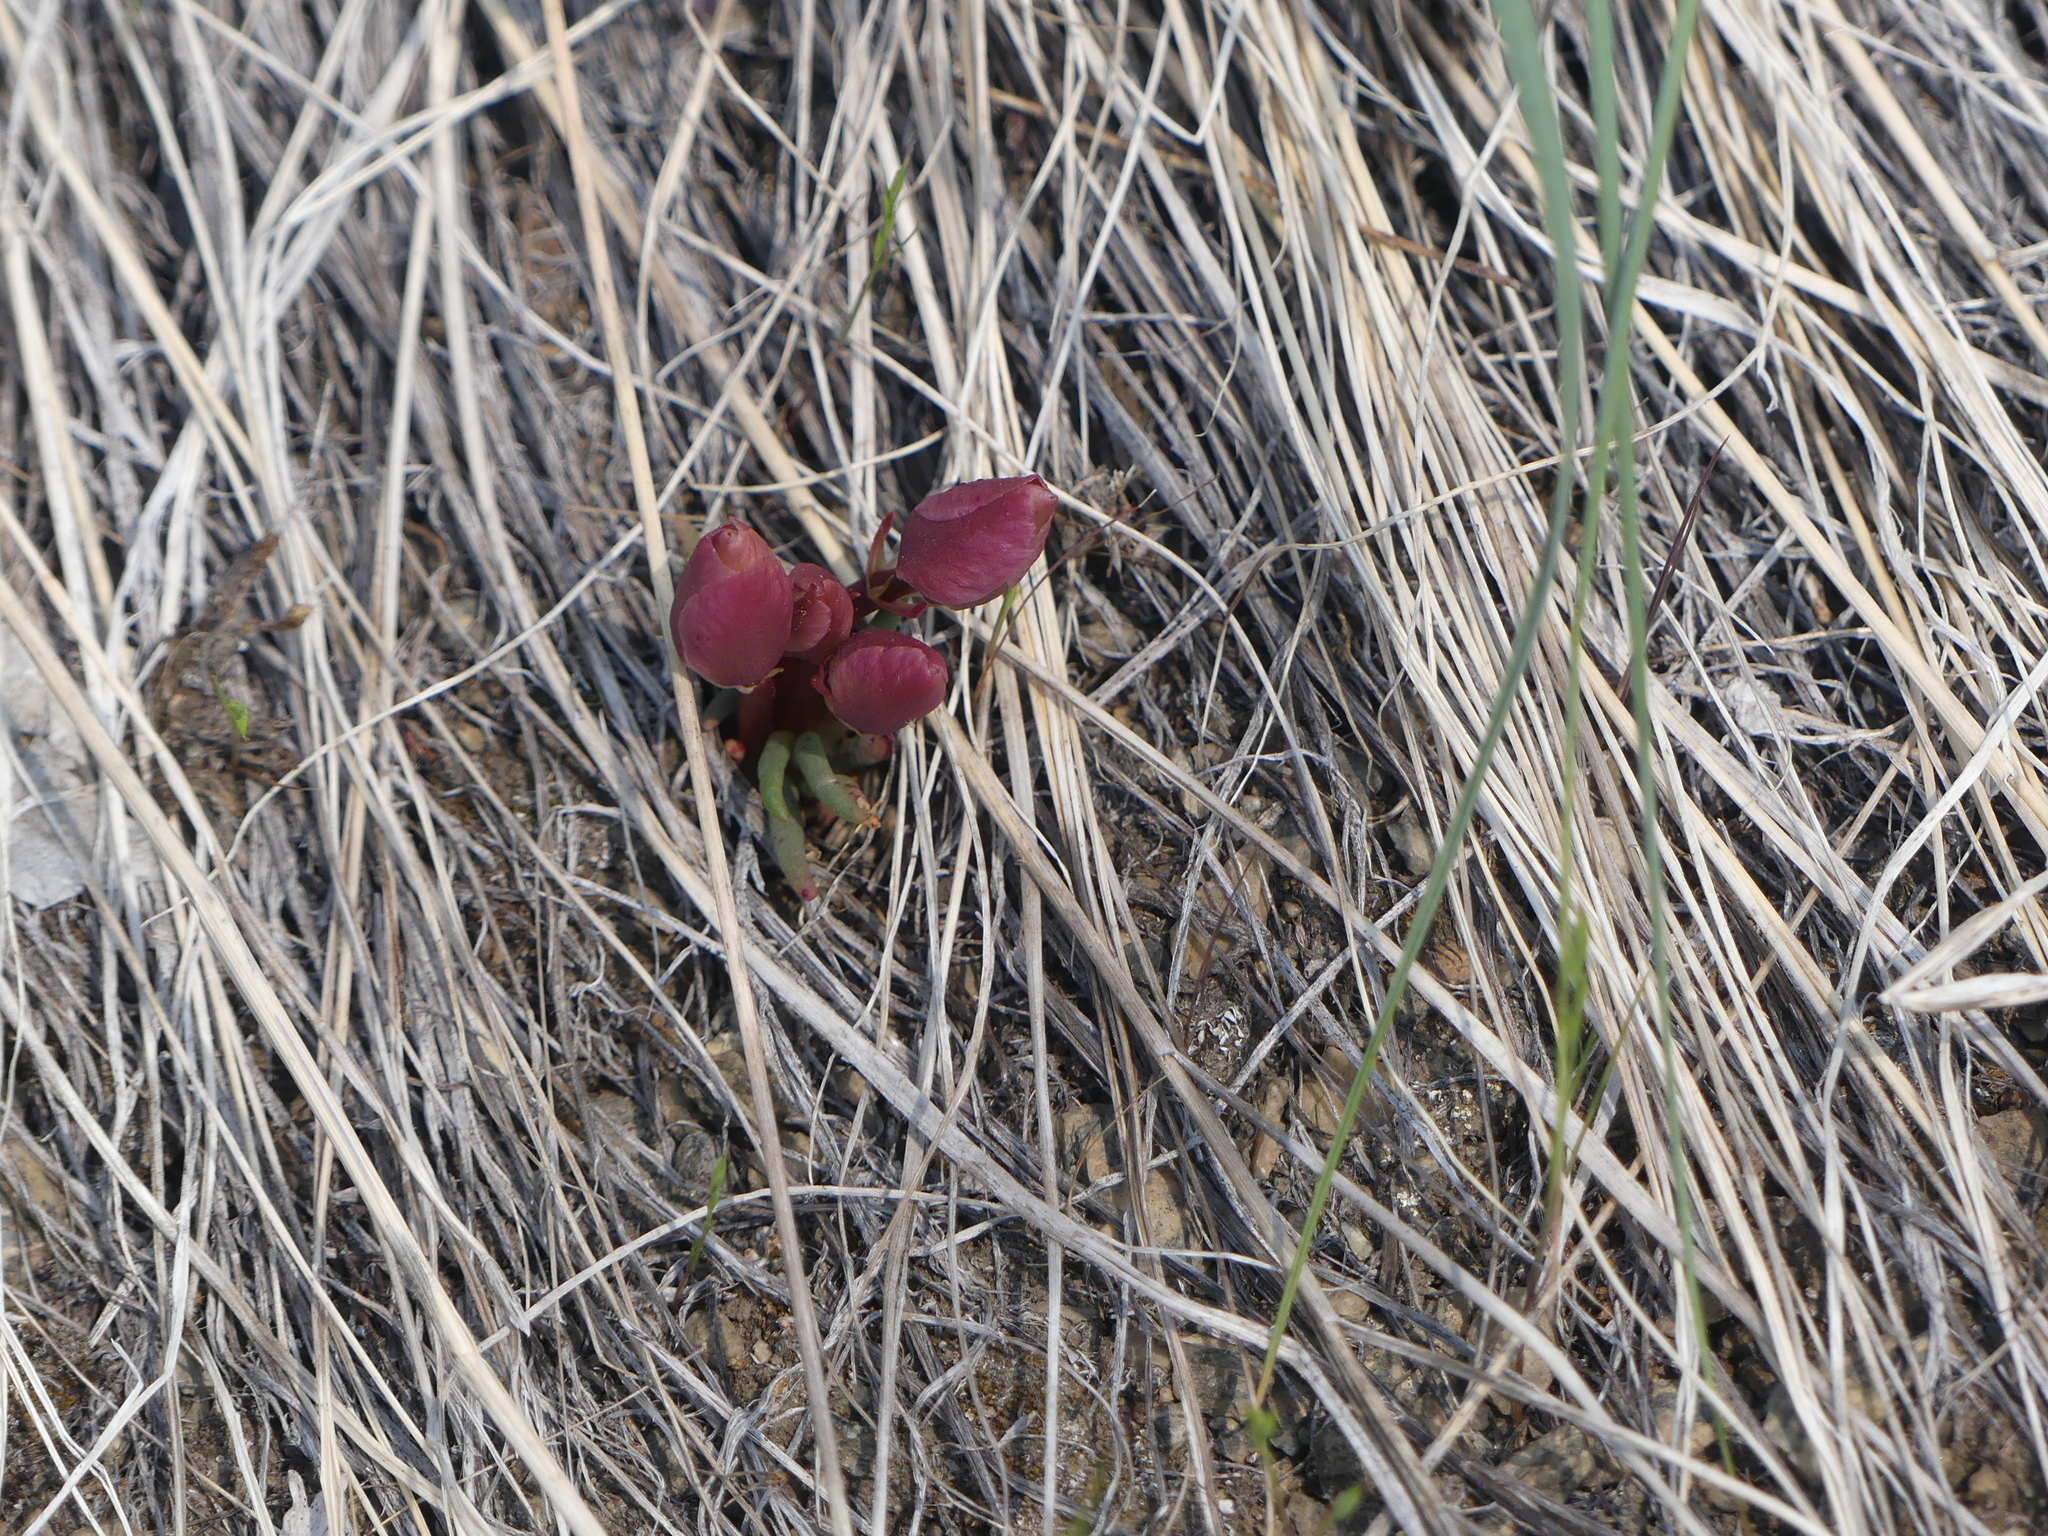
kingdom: Plantae
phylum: Tracheophyta
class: Magnoliopsida
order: Caryophyllales
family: Montiaceae
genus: Lewisia
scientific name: Lewisia rediviva
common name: Bitter-root
